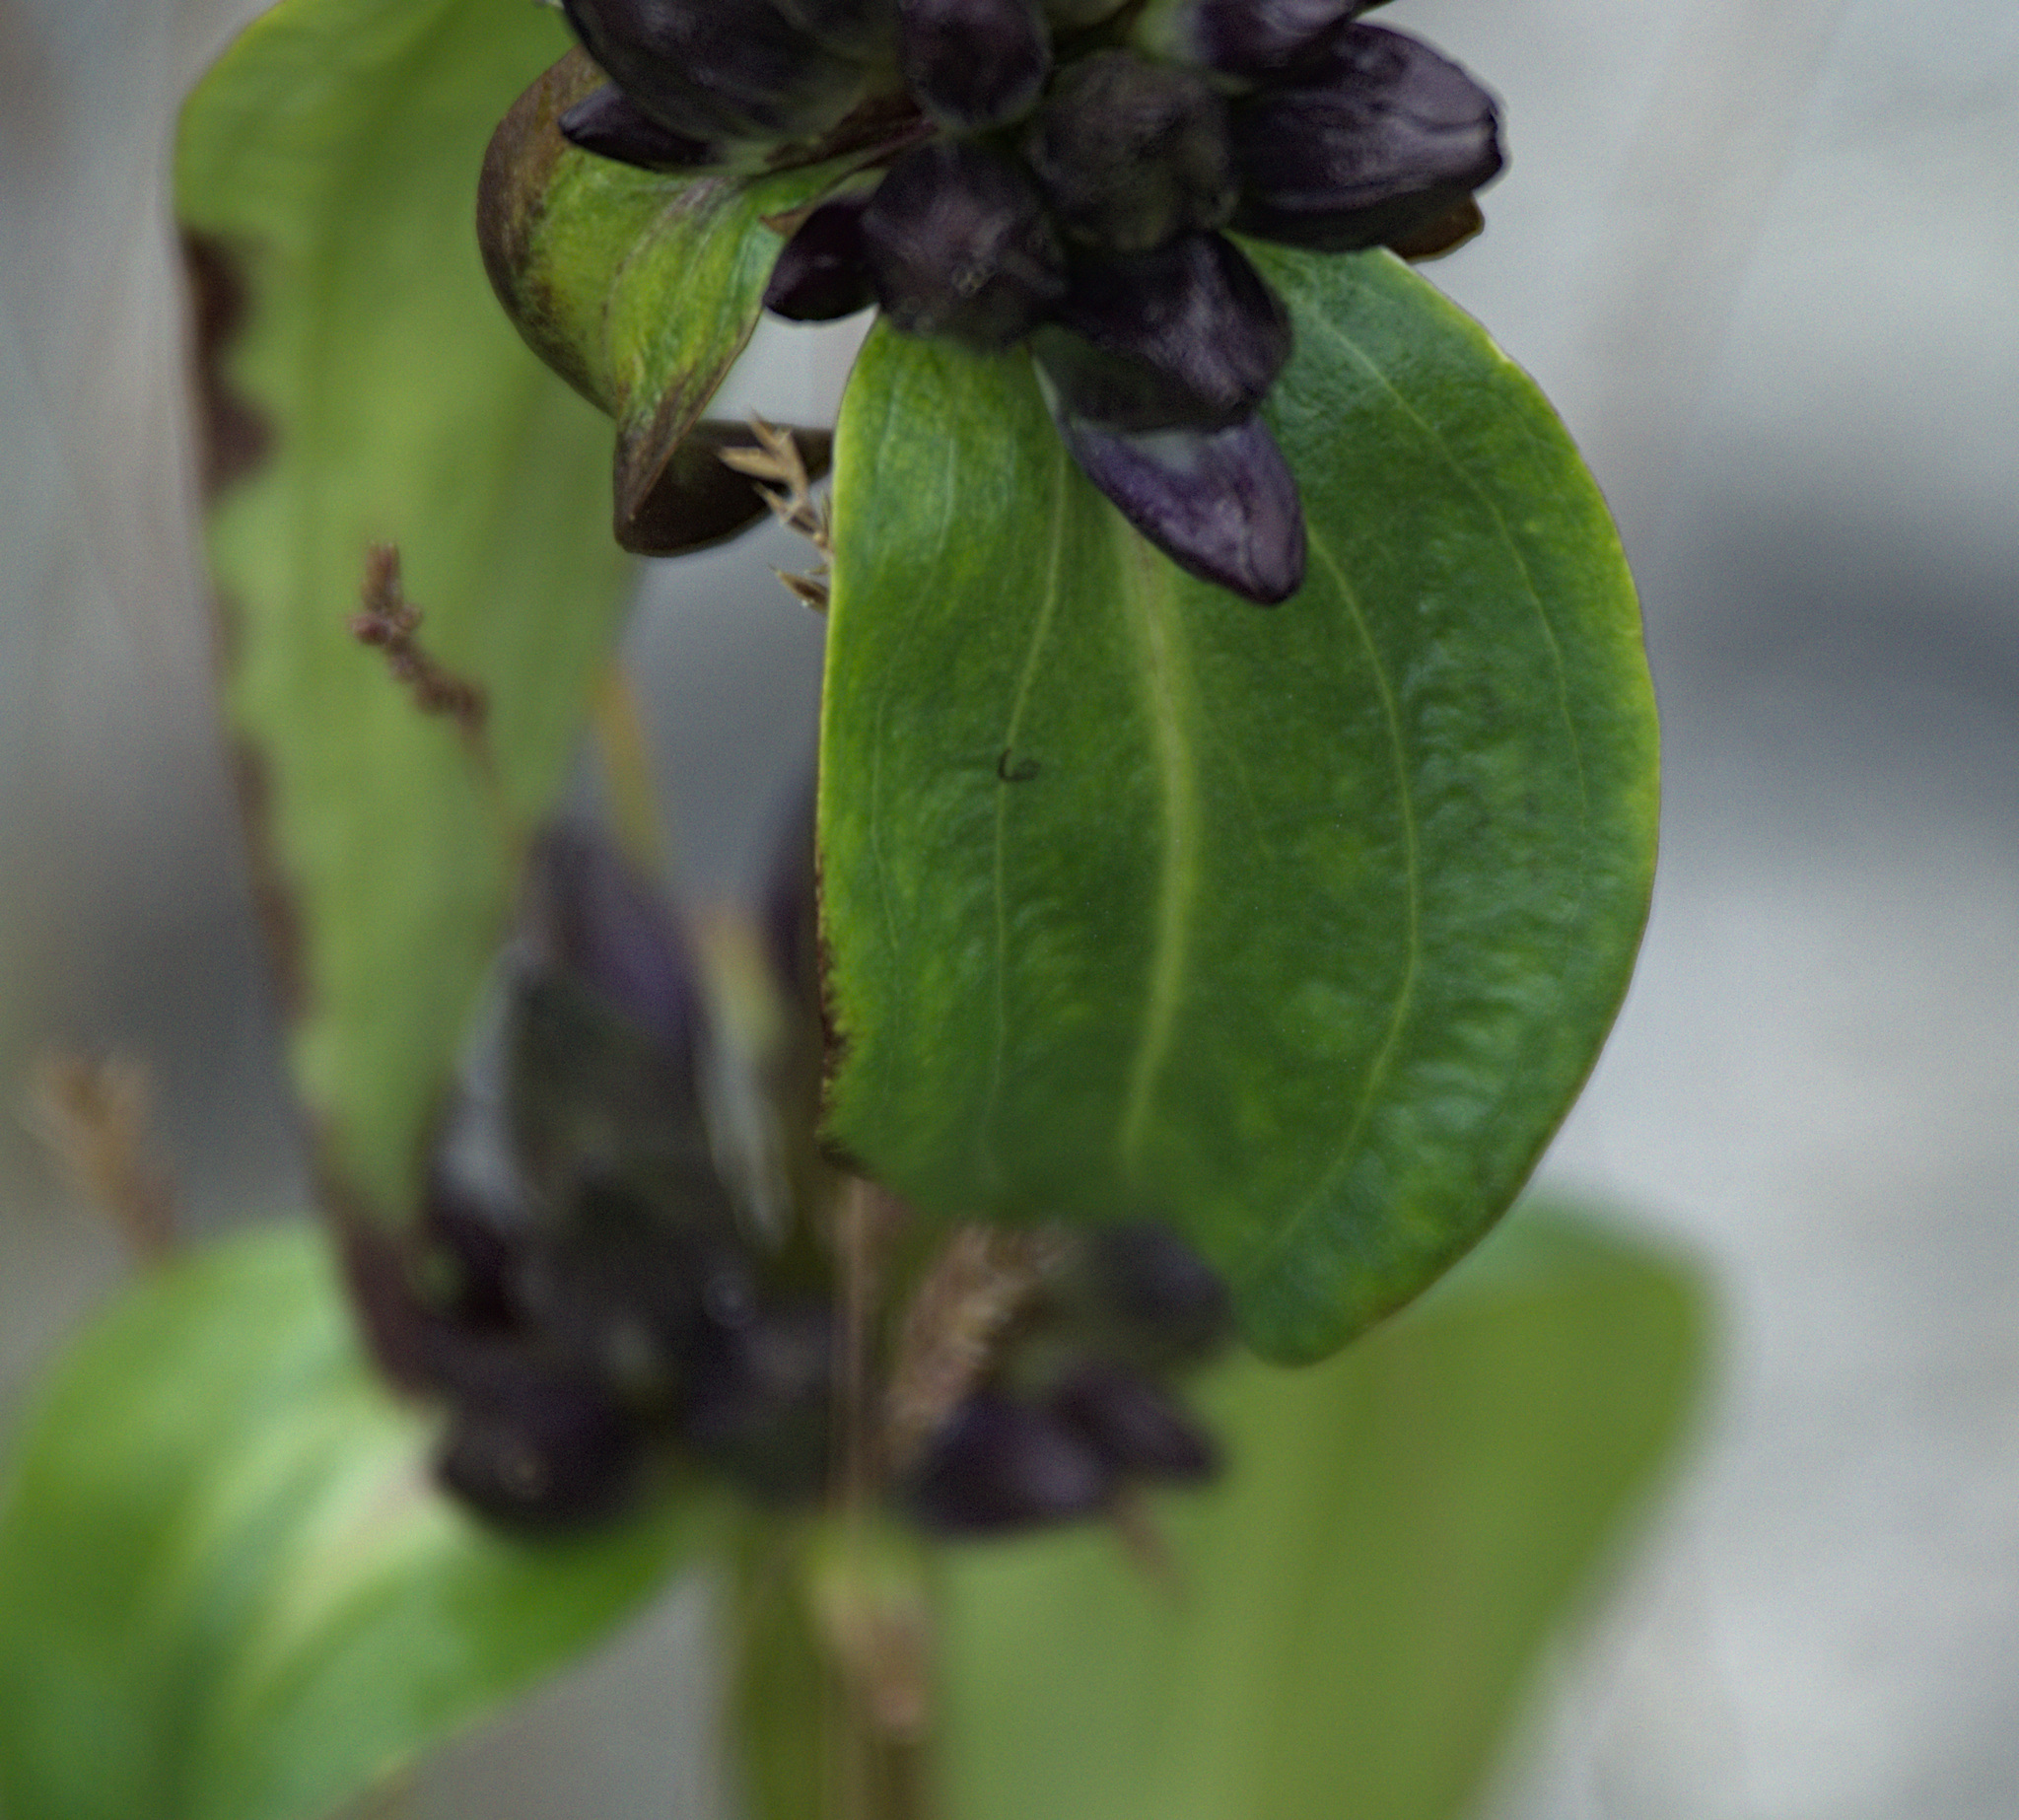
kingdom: Plantae
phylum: Tracheophyta
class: Magnoliopsida
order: Gentianales
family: Gentianaceae
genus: Gentiana
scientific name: Gentiana macrophylla
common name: Large-leaf gentian
